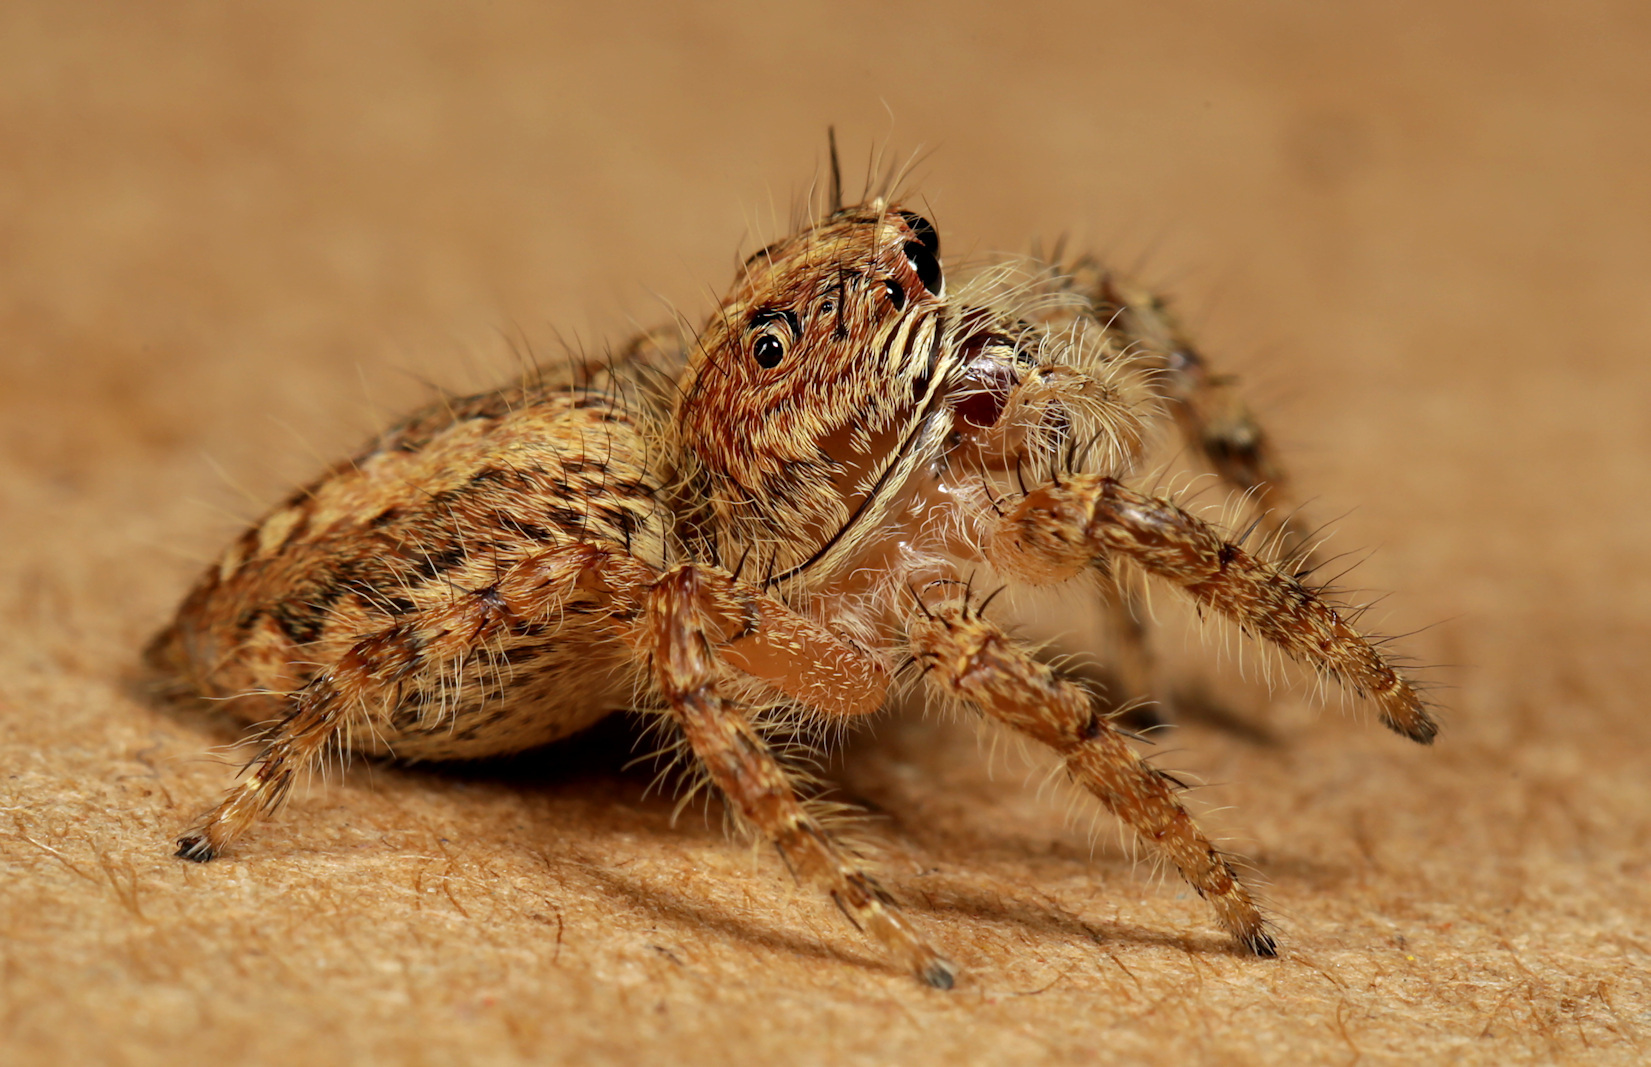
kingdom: Animalia
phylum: Arthropoda
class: Arachnida
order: Araneae
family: Salticidae
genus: Hyllus
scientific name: Hyllus treleaveni
